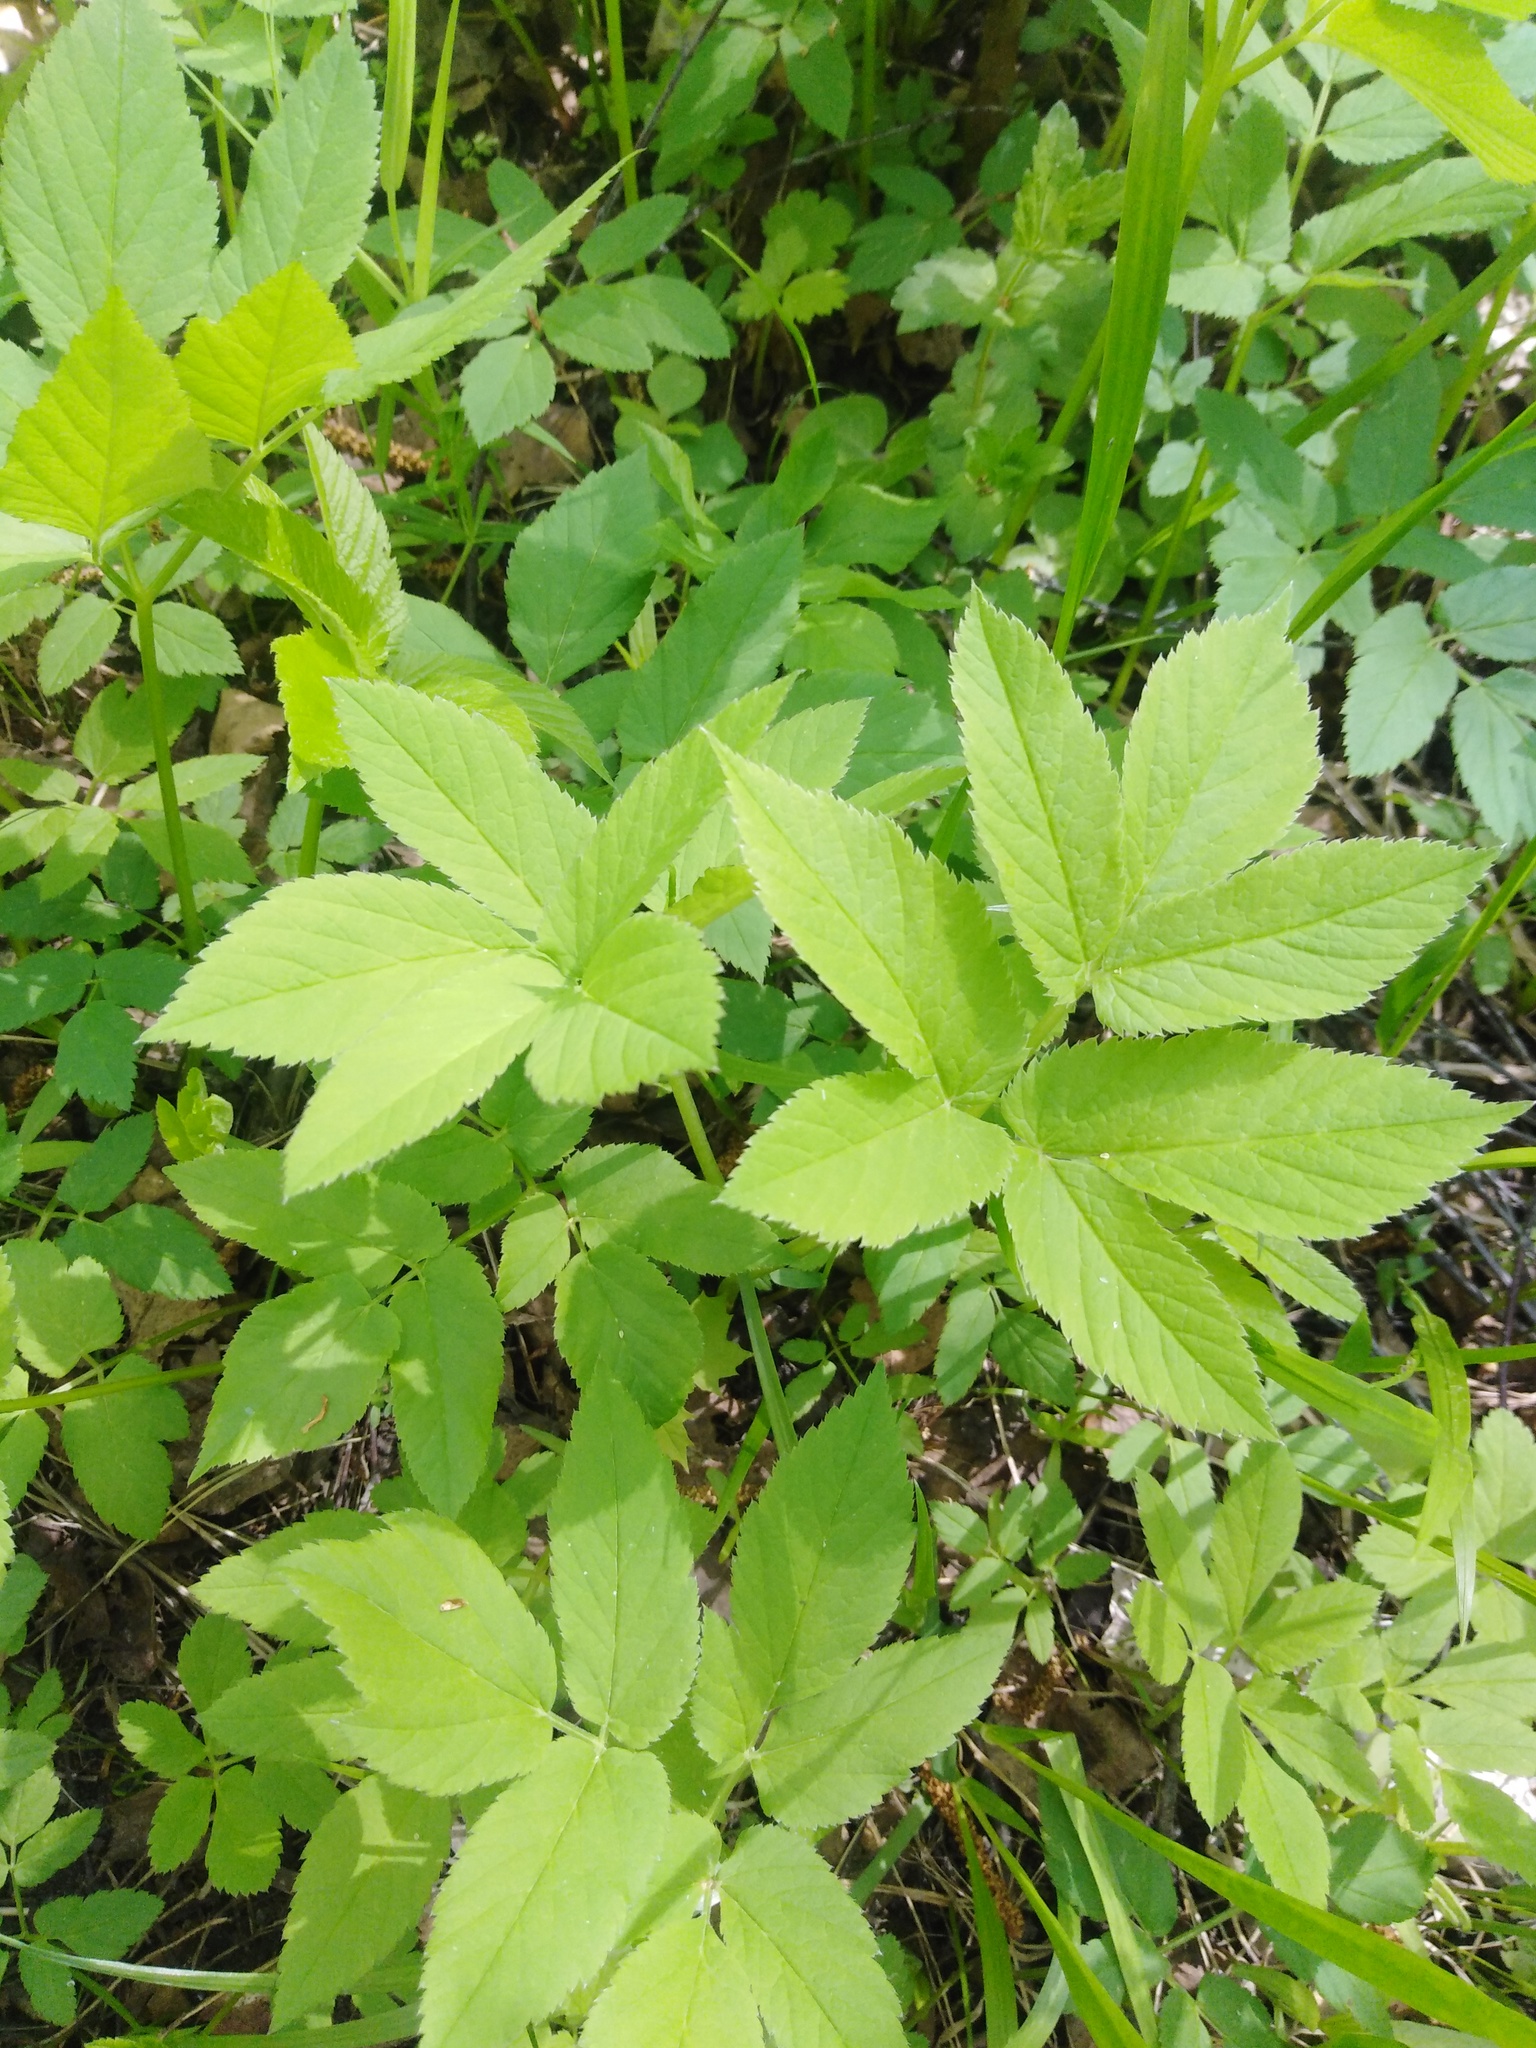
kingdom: Plantae
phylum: Tracheophyta
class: Magnoliopsida
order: Apiales
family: Apiaceae
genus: Aegopodium
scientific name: Aegopodium podagraria
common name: Ground-elder
